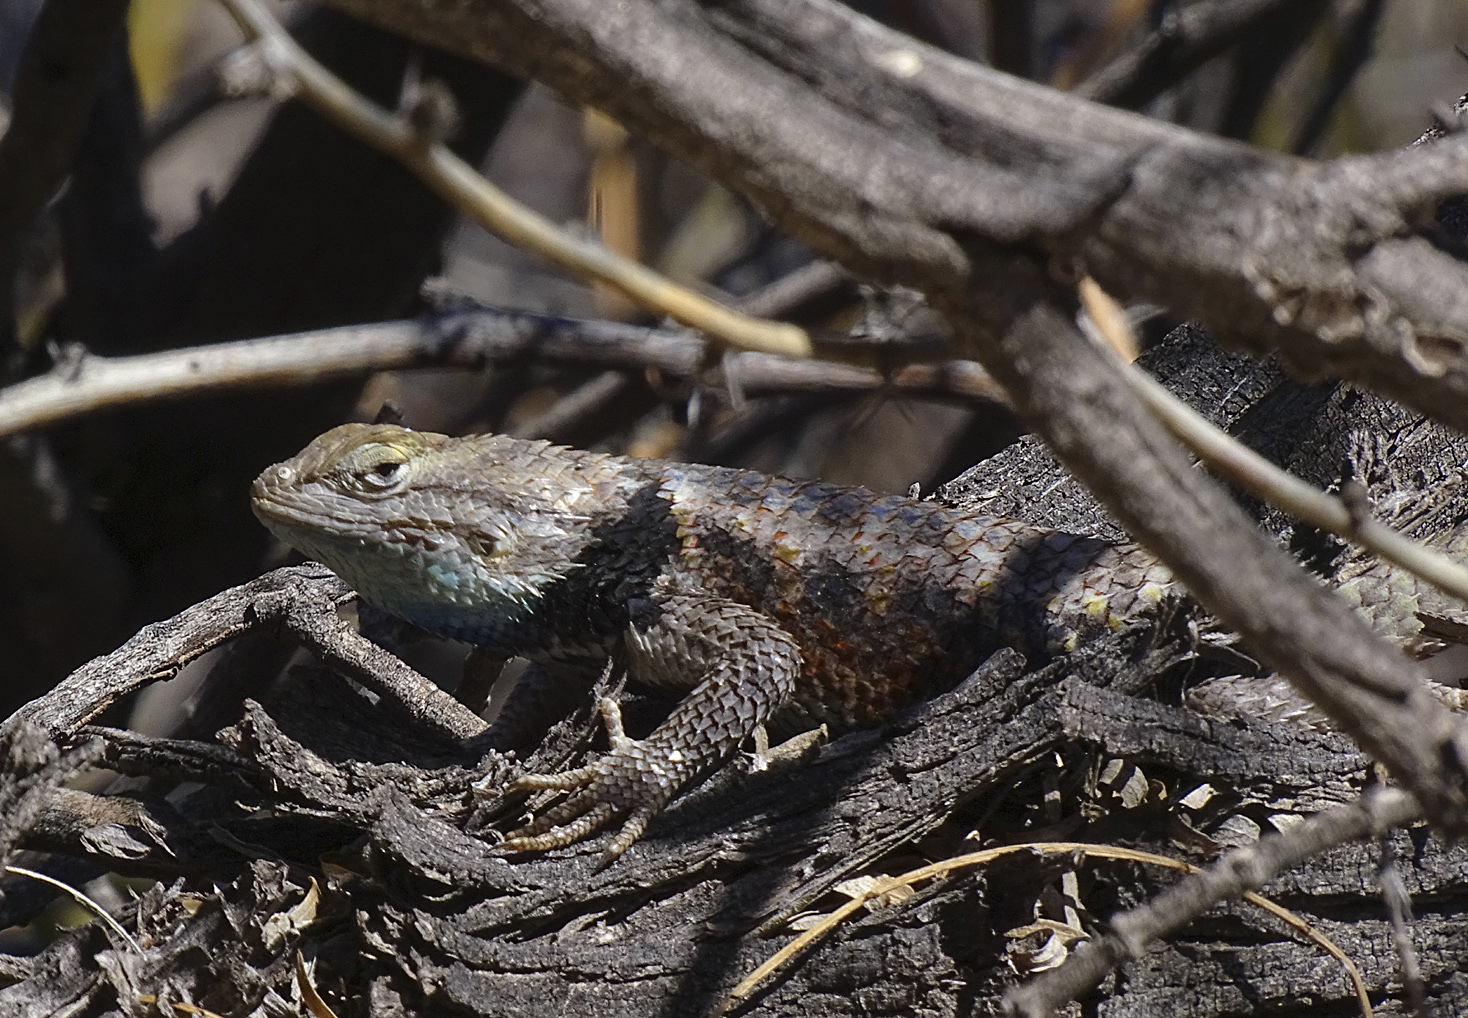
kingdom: Animalia
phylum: Chordata
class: Squamata
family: Phrynosomatidae
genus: Sceloporus
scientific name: Sceloporus uniformis
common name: Yellow-backed spiny lizard
